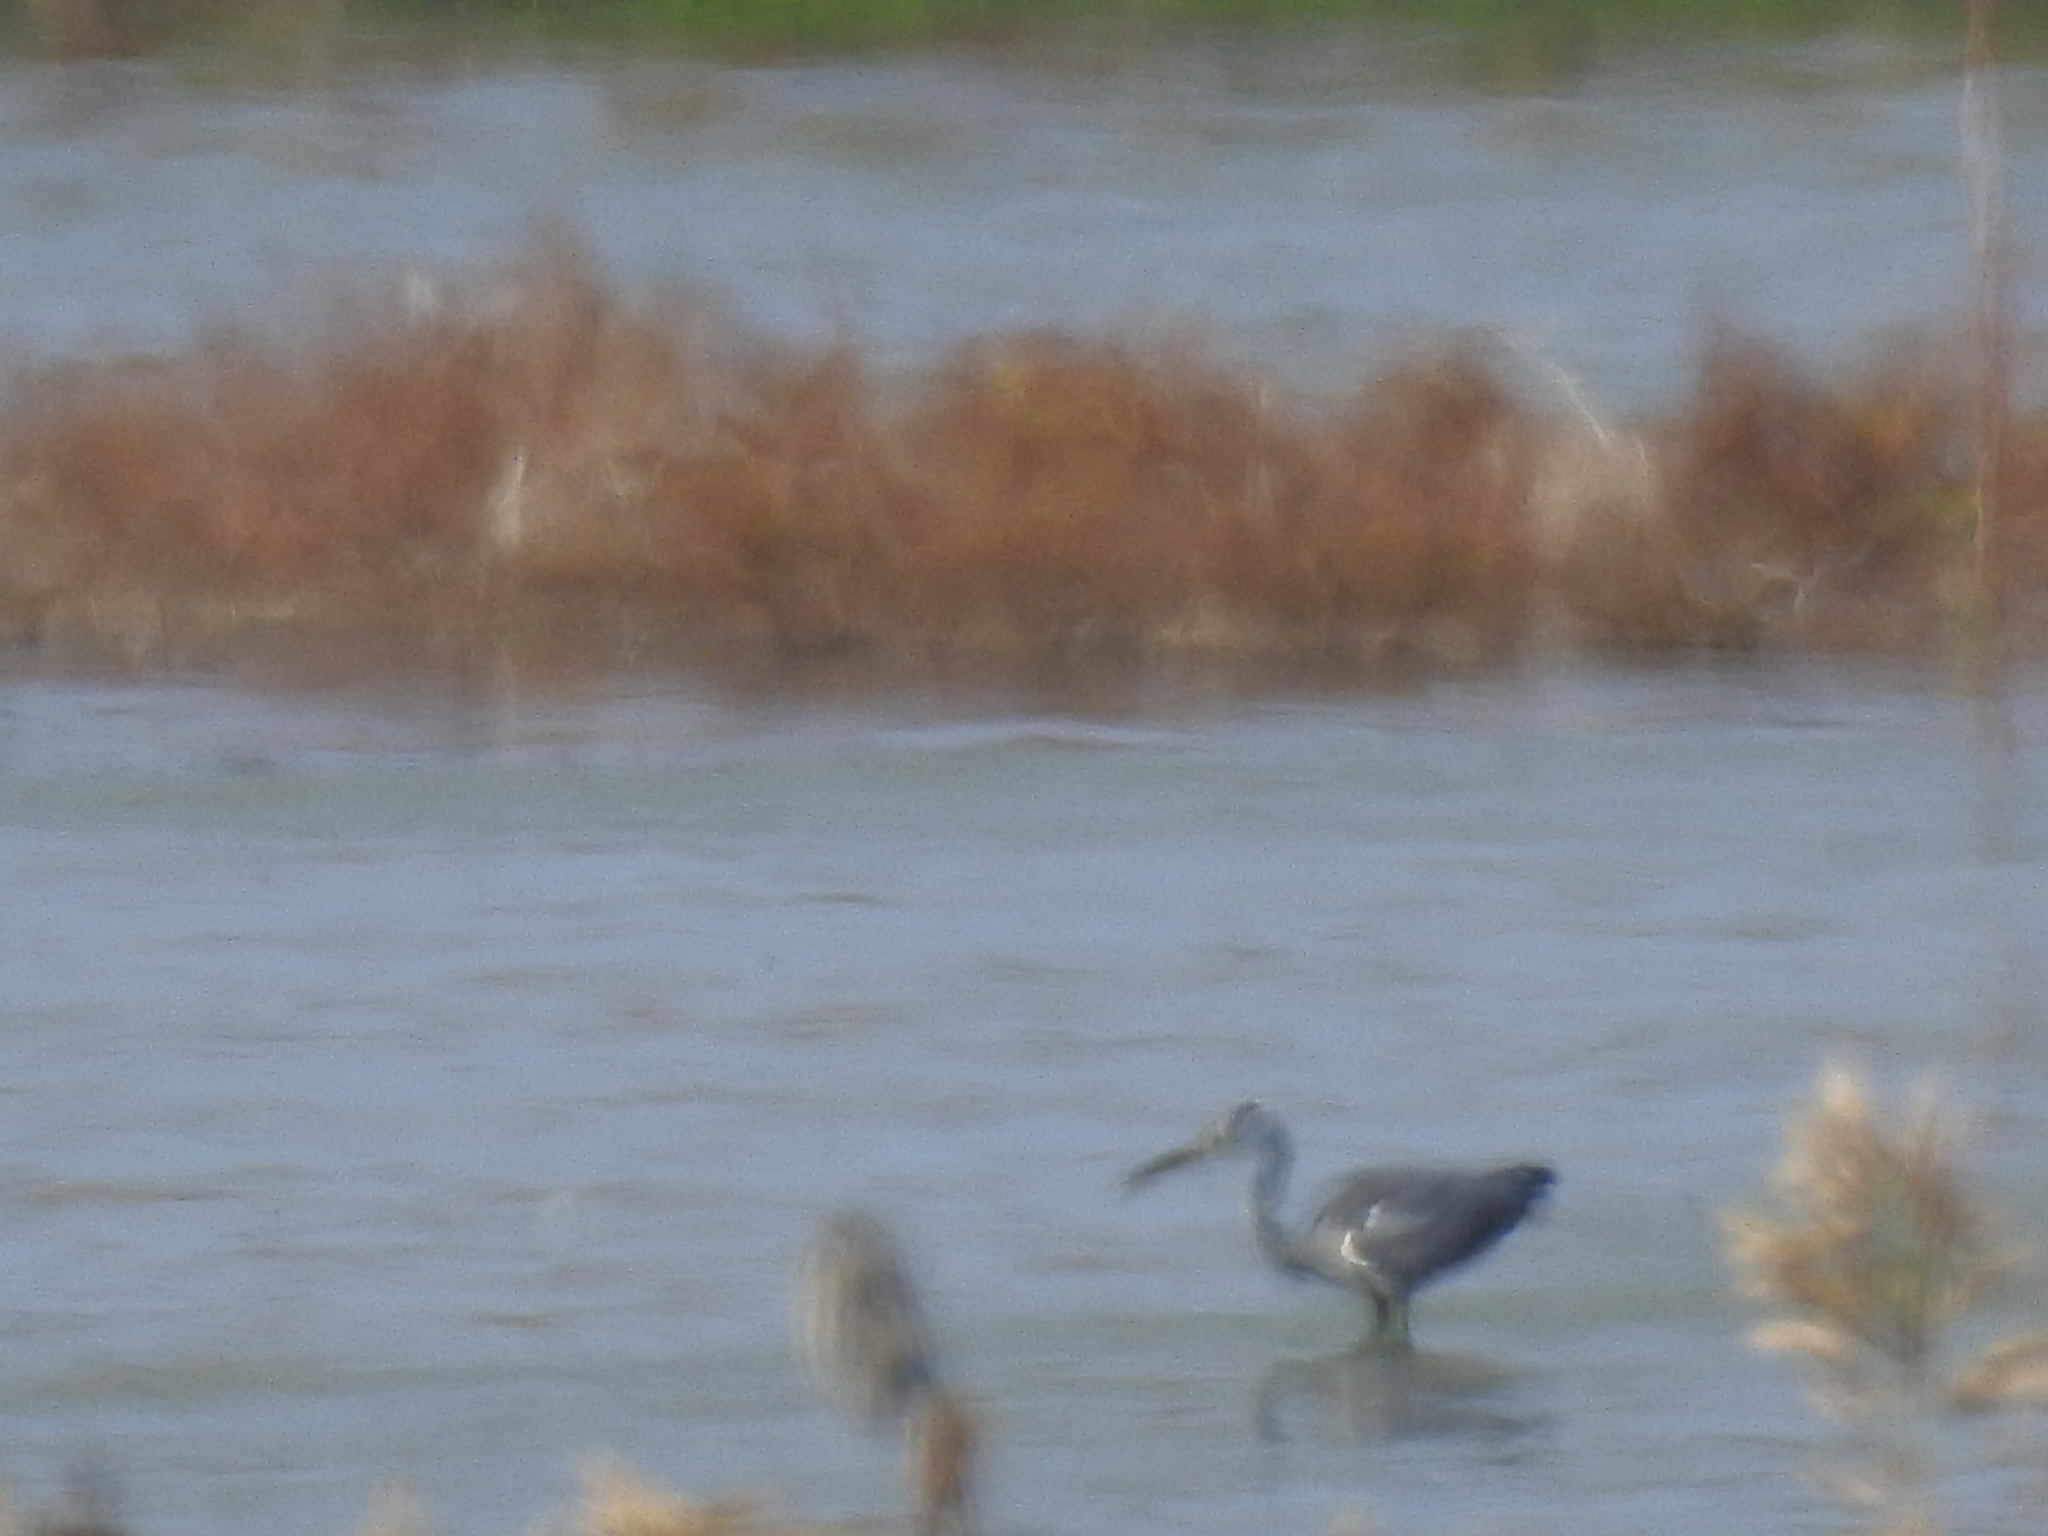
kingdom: Animalia
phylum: Chordata
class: Aves
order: Pelecaniformes
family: Ardeidae
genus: Ardea
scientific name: Ardea cinerea
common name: Grey heron
